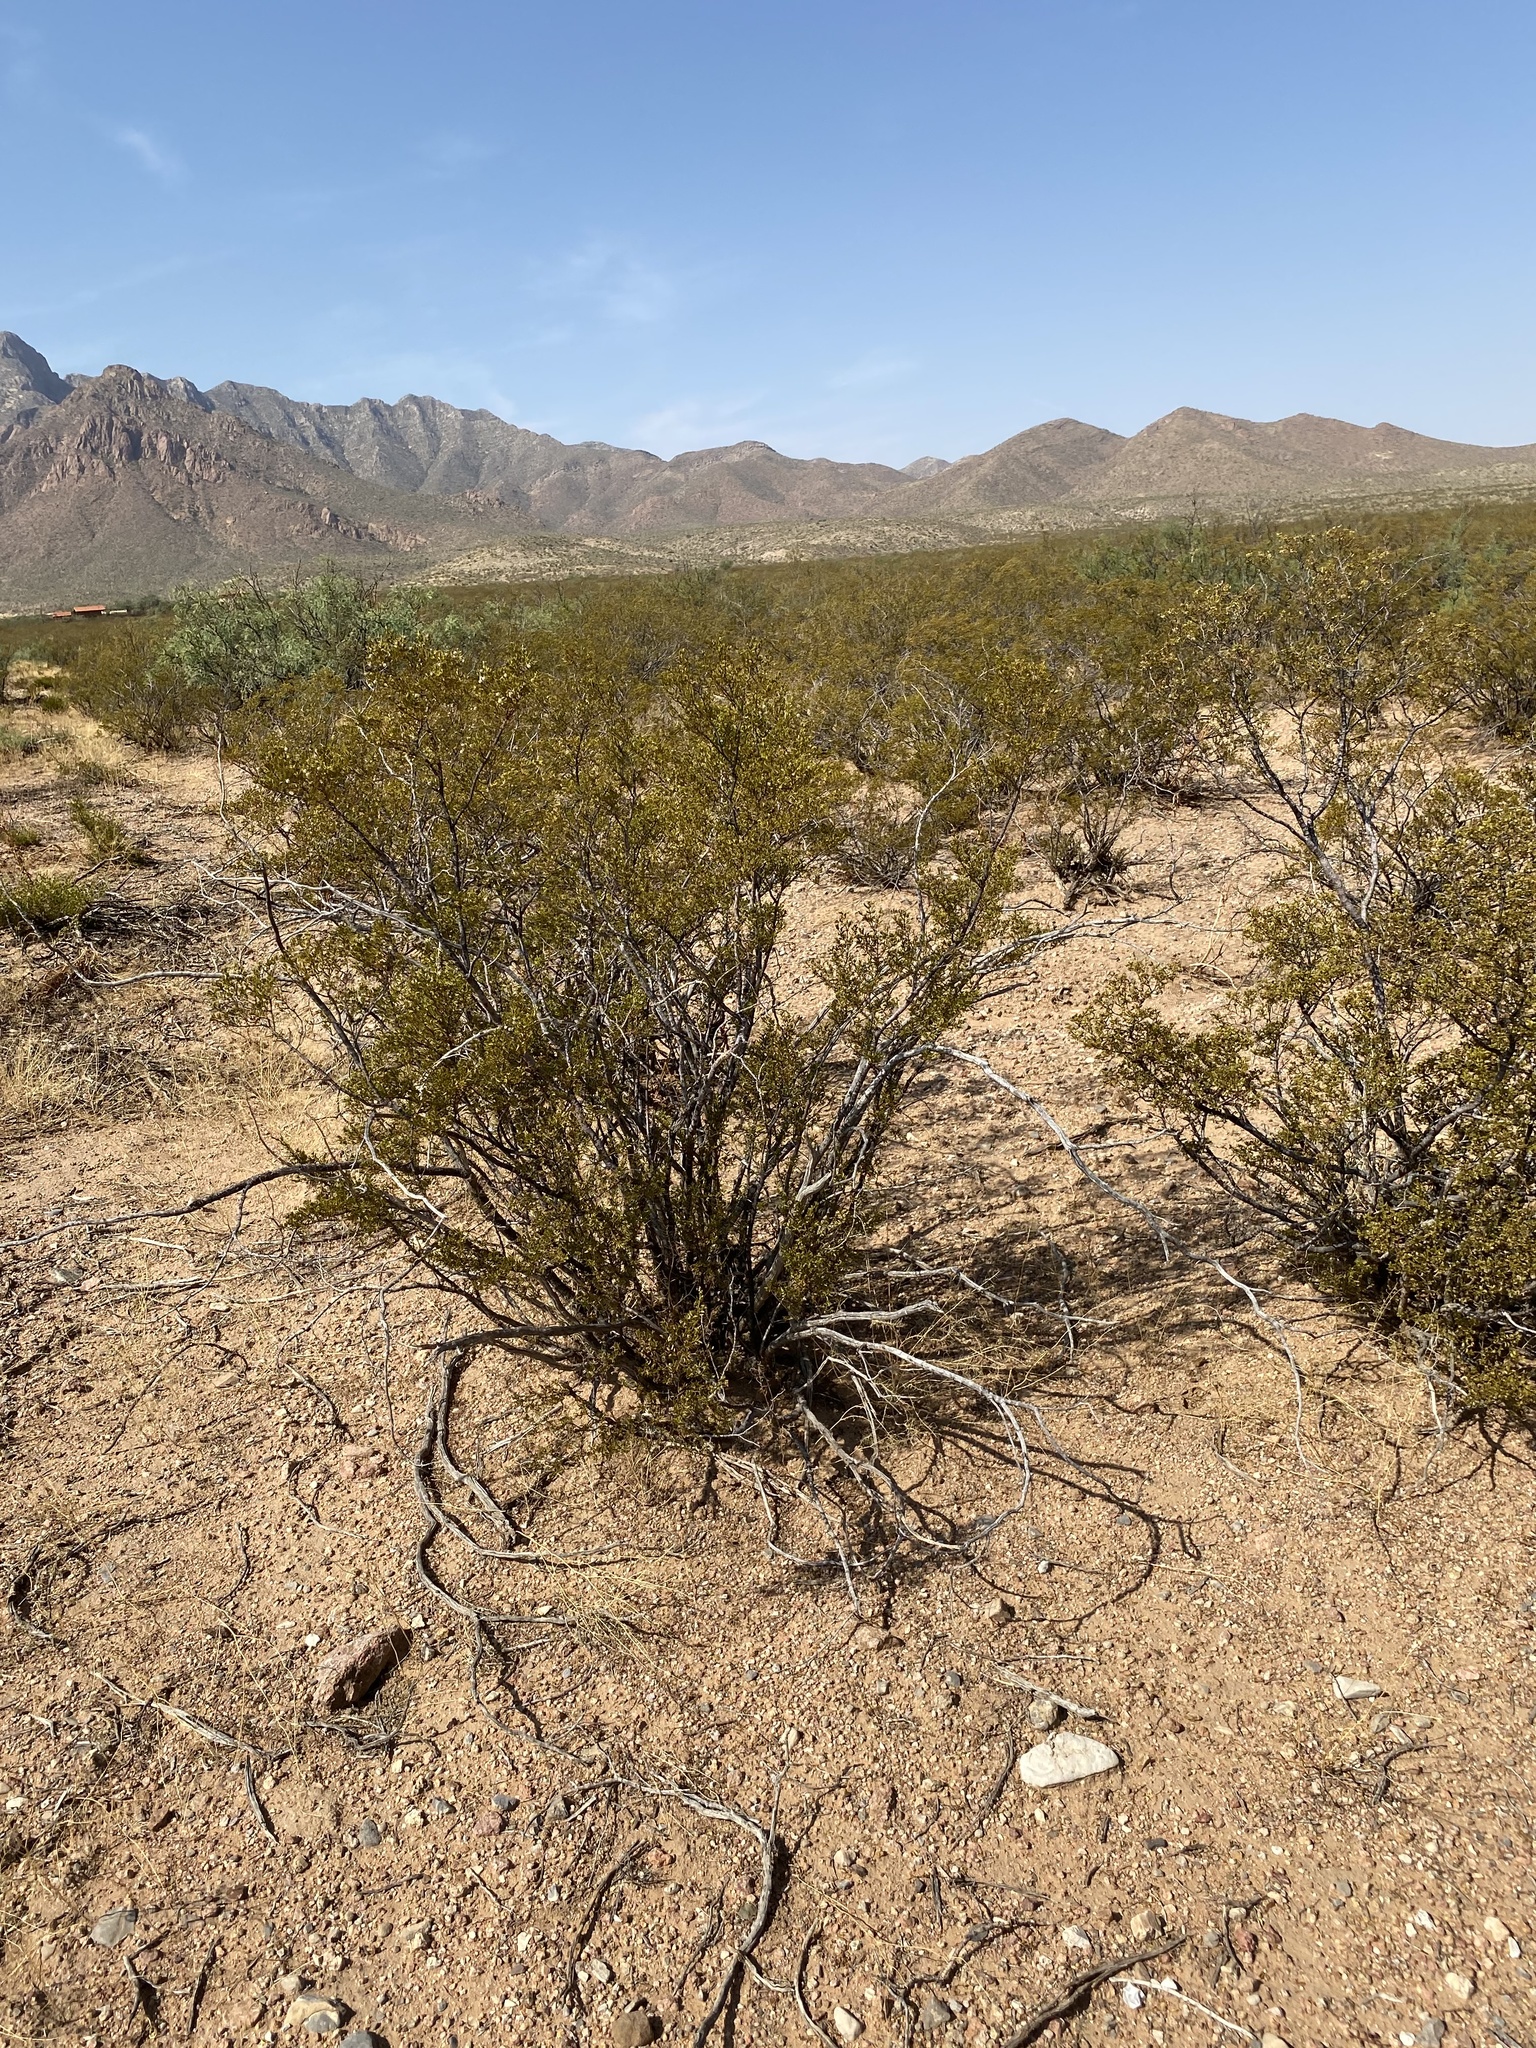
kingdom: Plantae
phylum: Tracheophyta
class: Magnoliopsida
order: Zygophyllales
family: Zygophyllaceae
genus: Larrea
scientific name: Larrea tridentata
